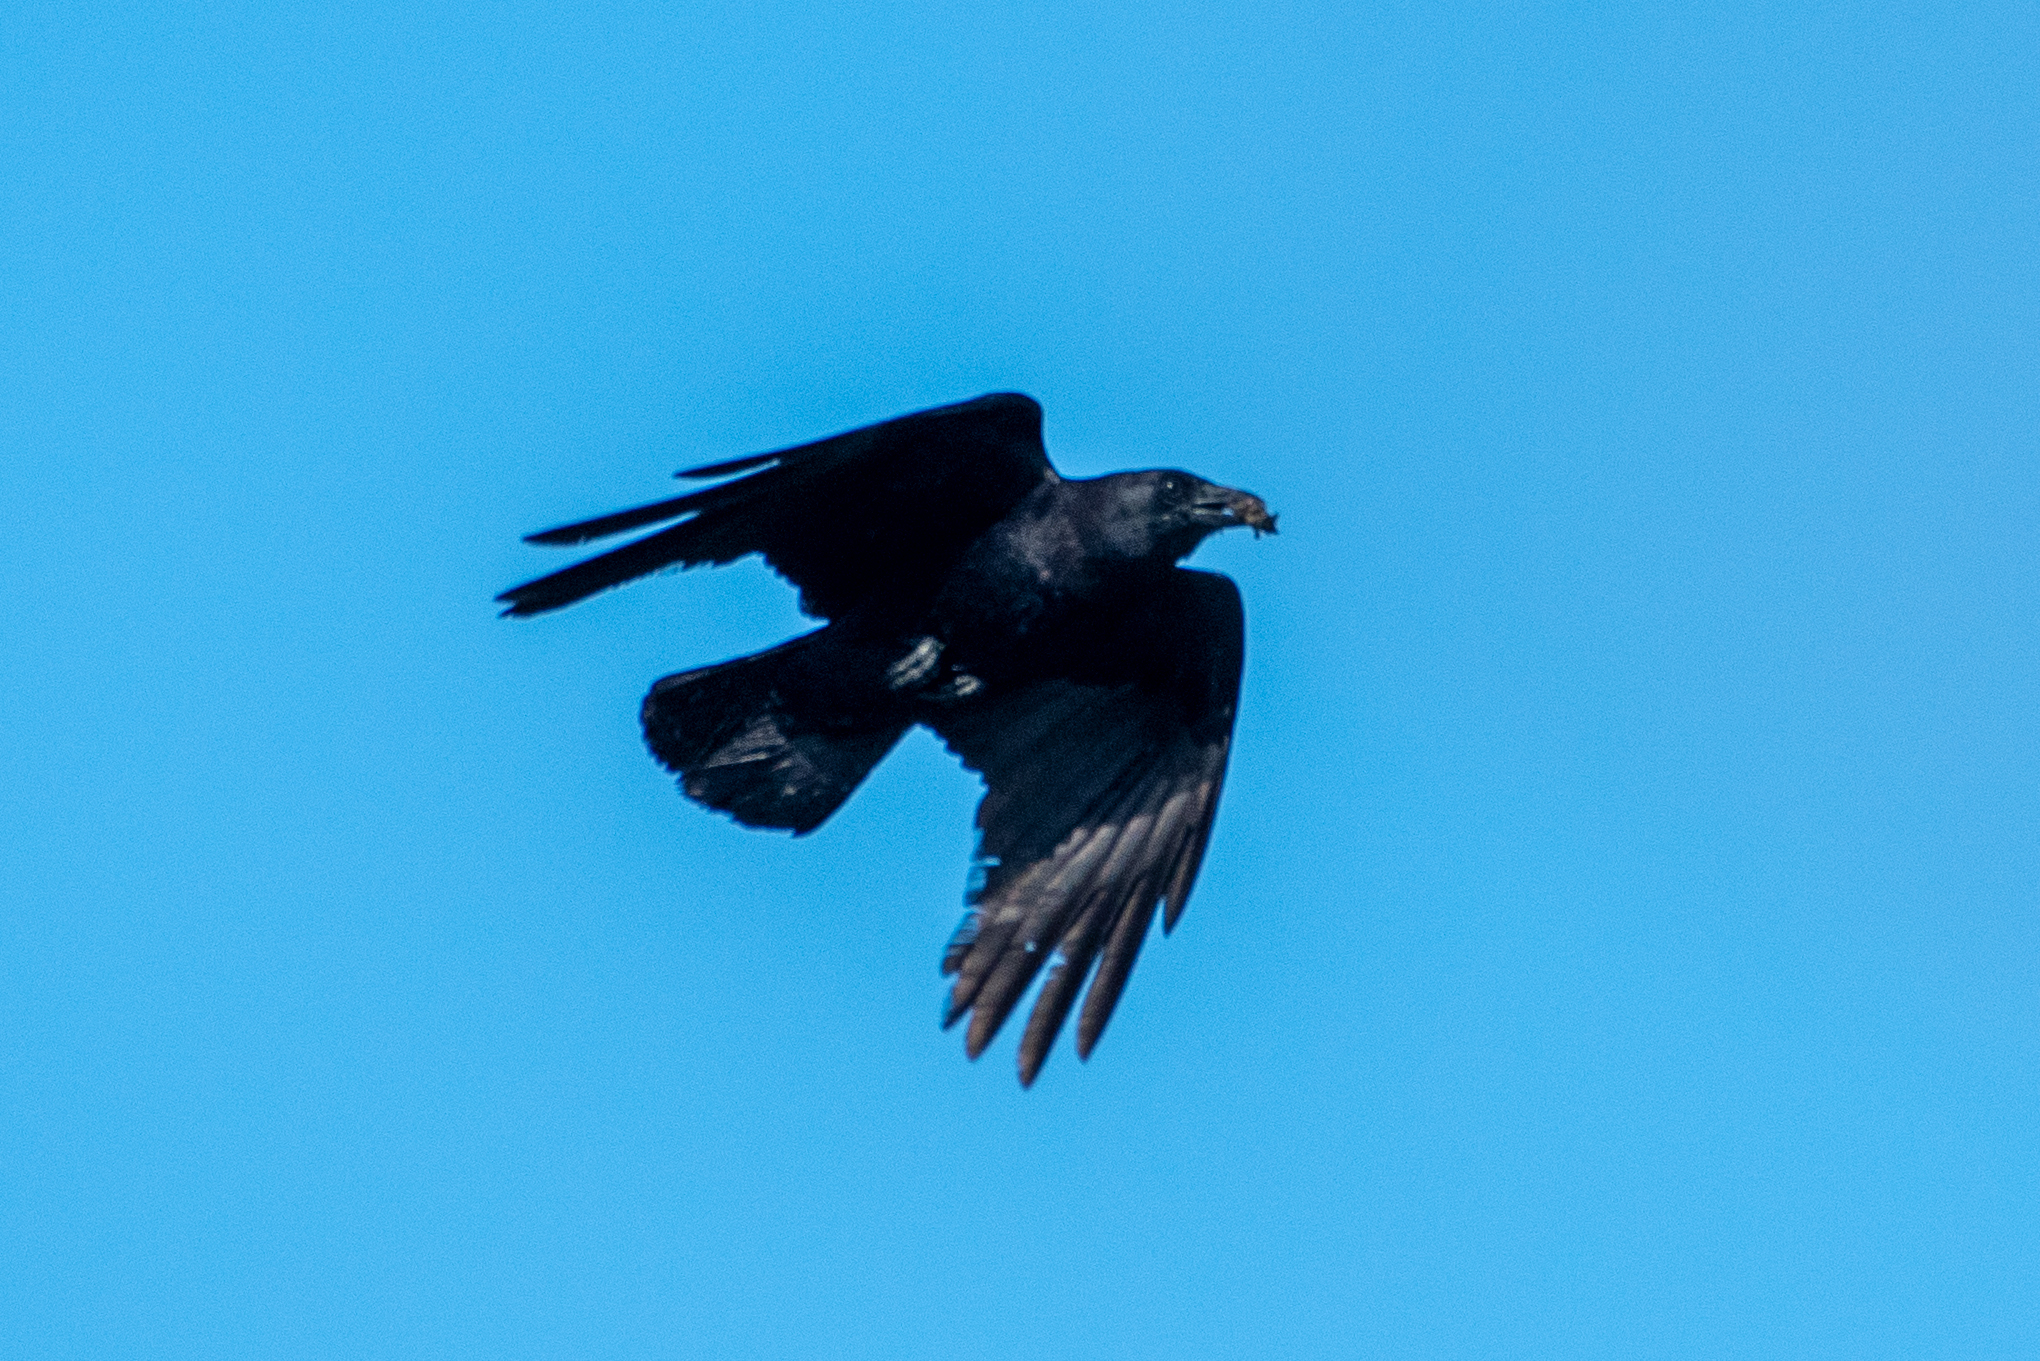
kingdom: Animalia
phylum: Chordata
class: Aves
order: Passeriformes
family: Corvidae
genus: Corvus
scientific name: Corvus corax
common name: Common raven
